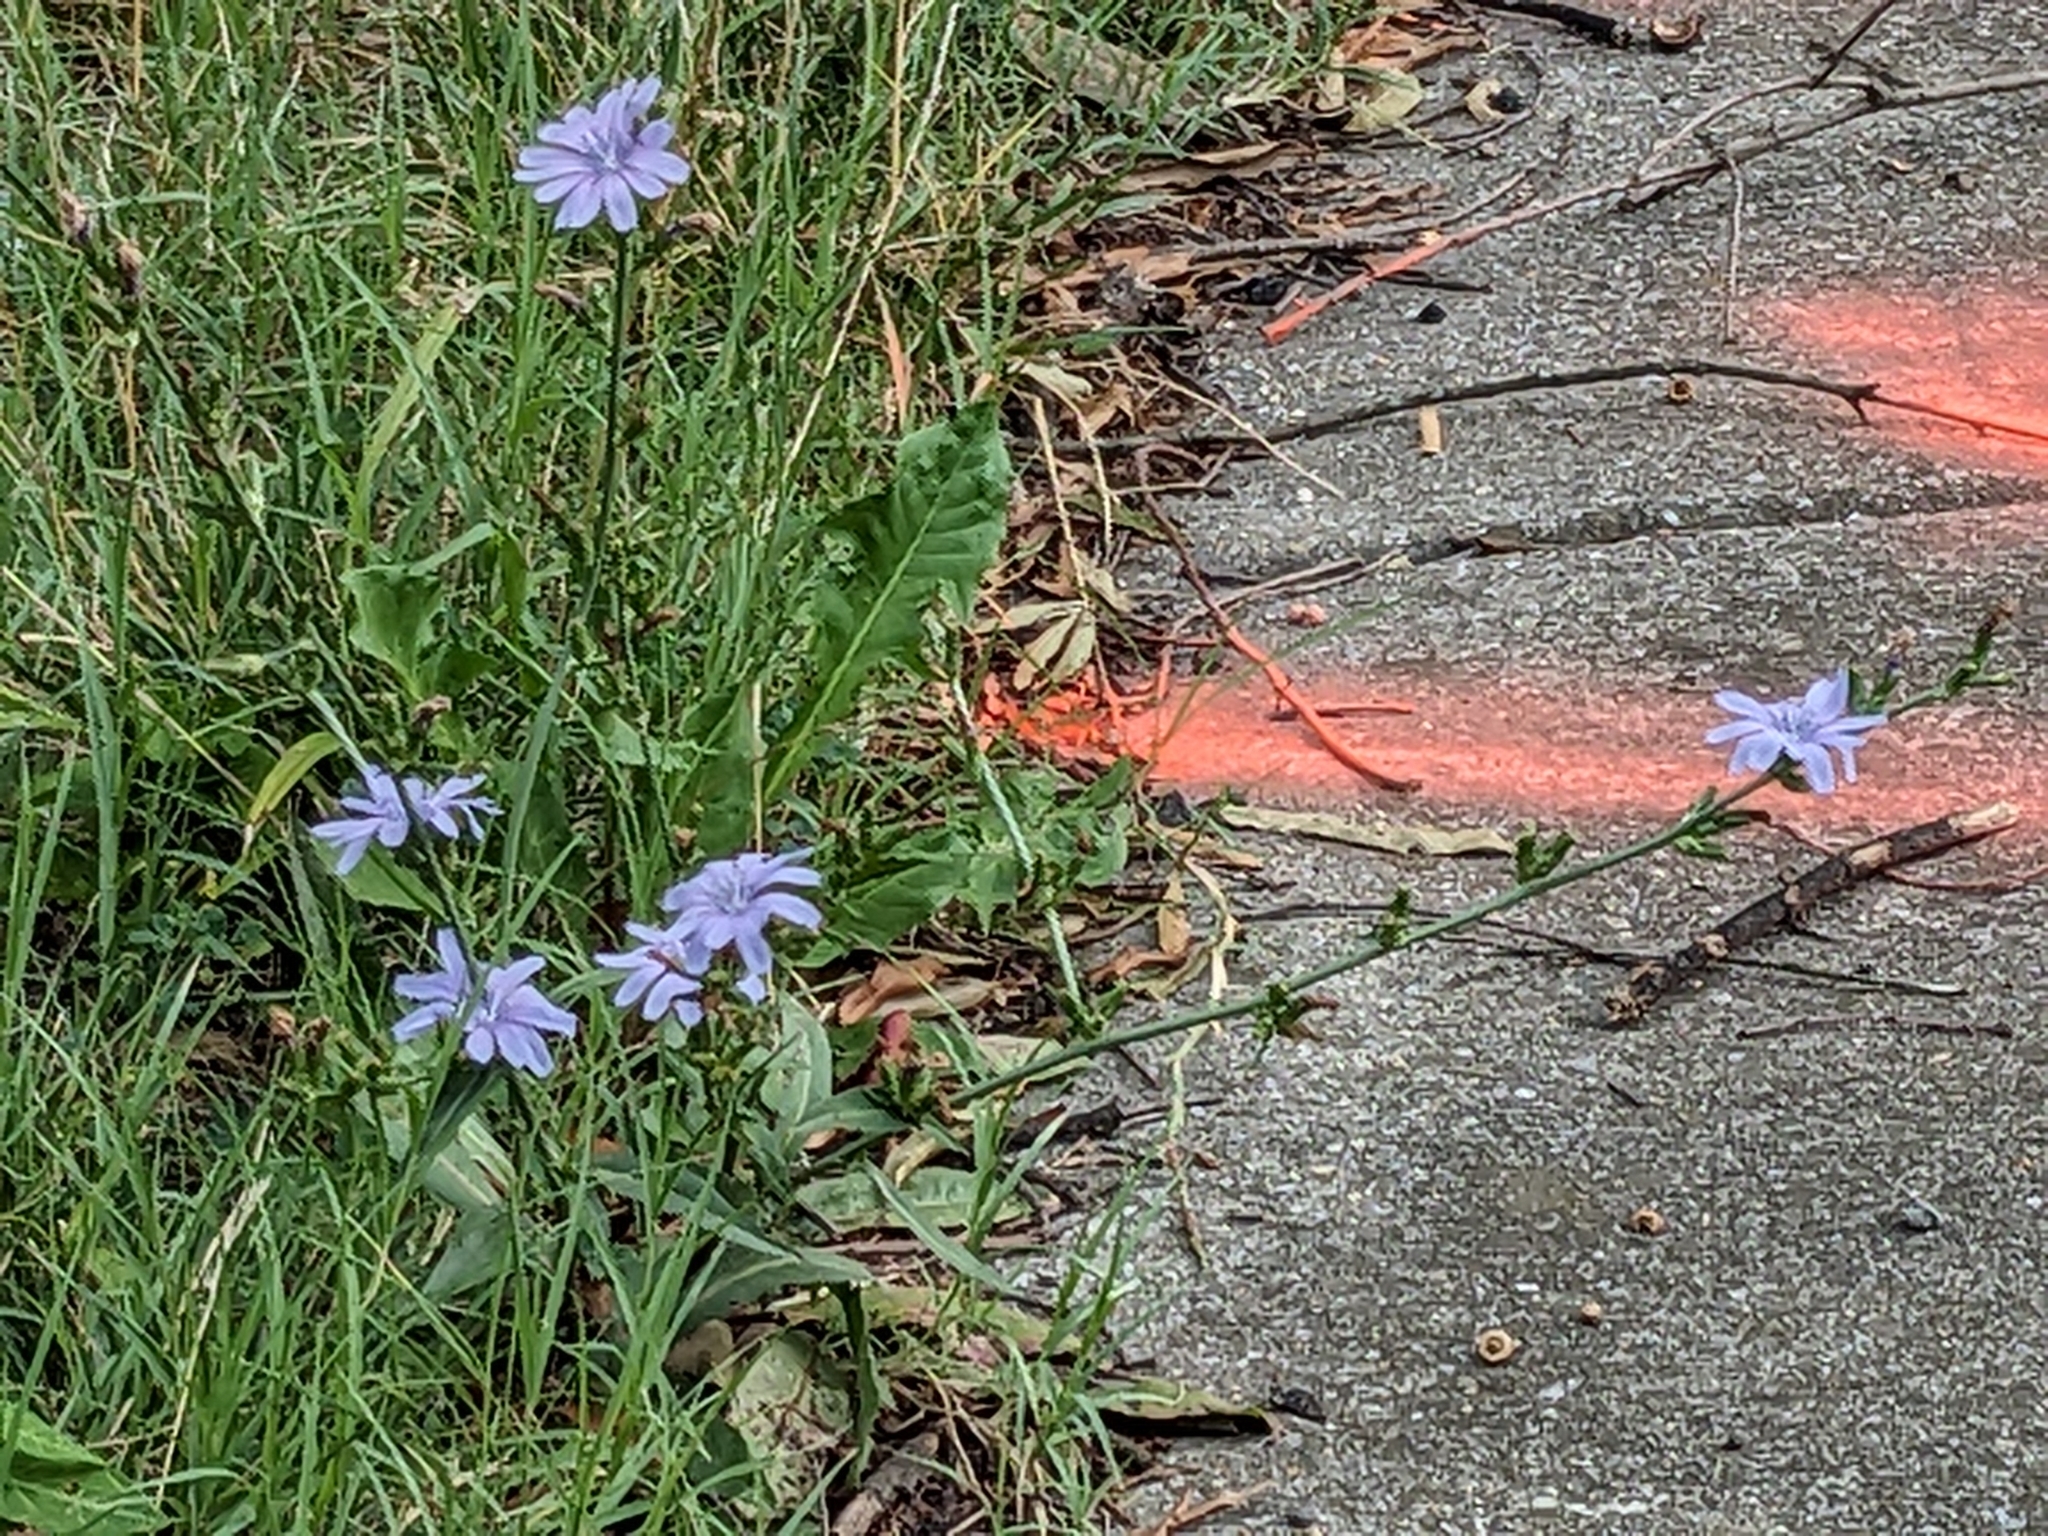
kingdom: Plantae
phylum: Tracheophyta
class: Magnoliopsida
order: Asterales
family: Asteraceae
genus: Cichorium
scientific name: Cichorium intybus
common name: Chicory
